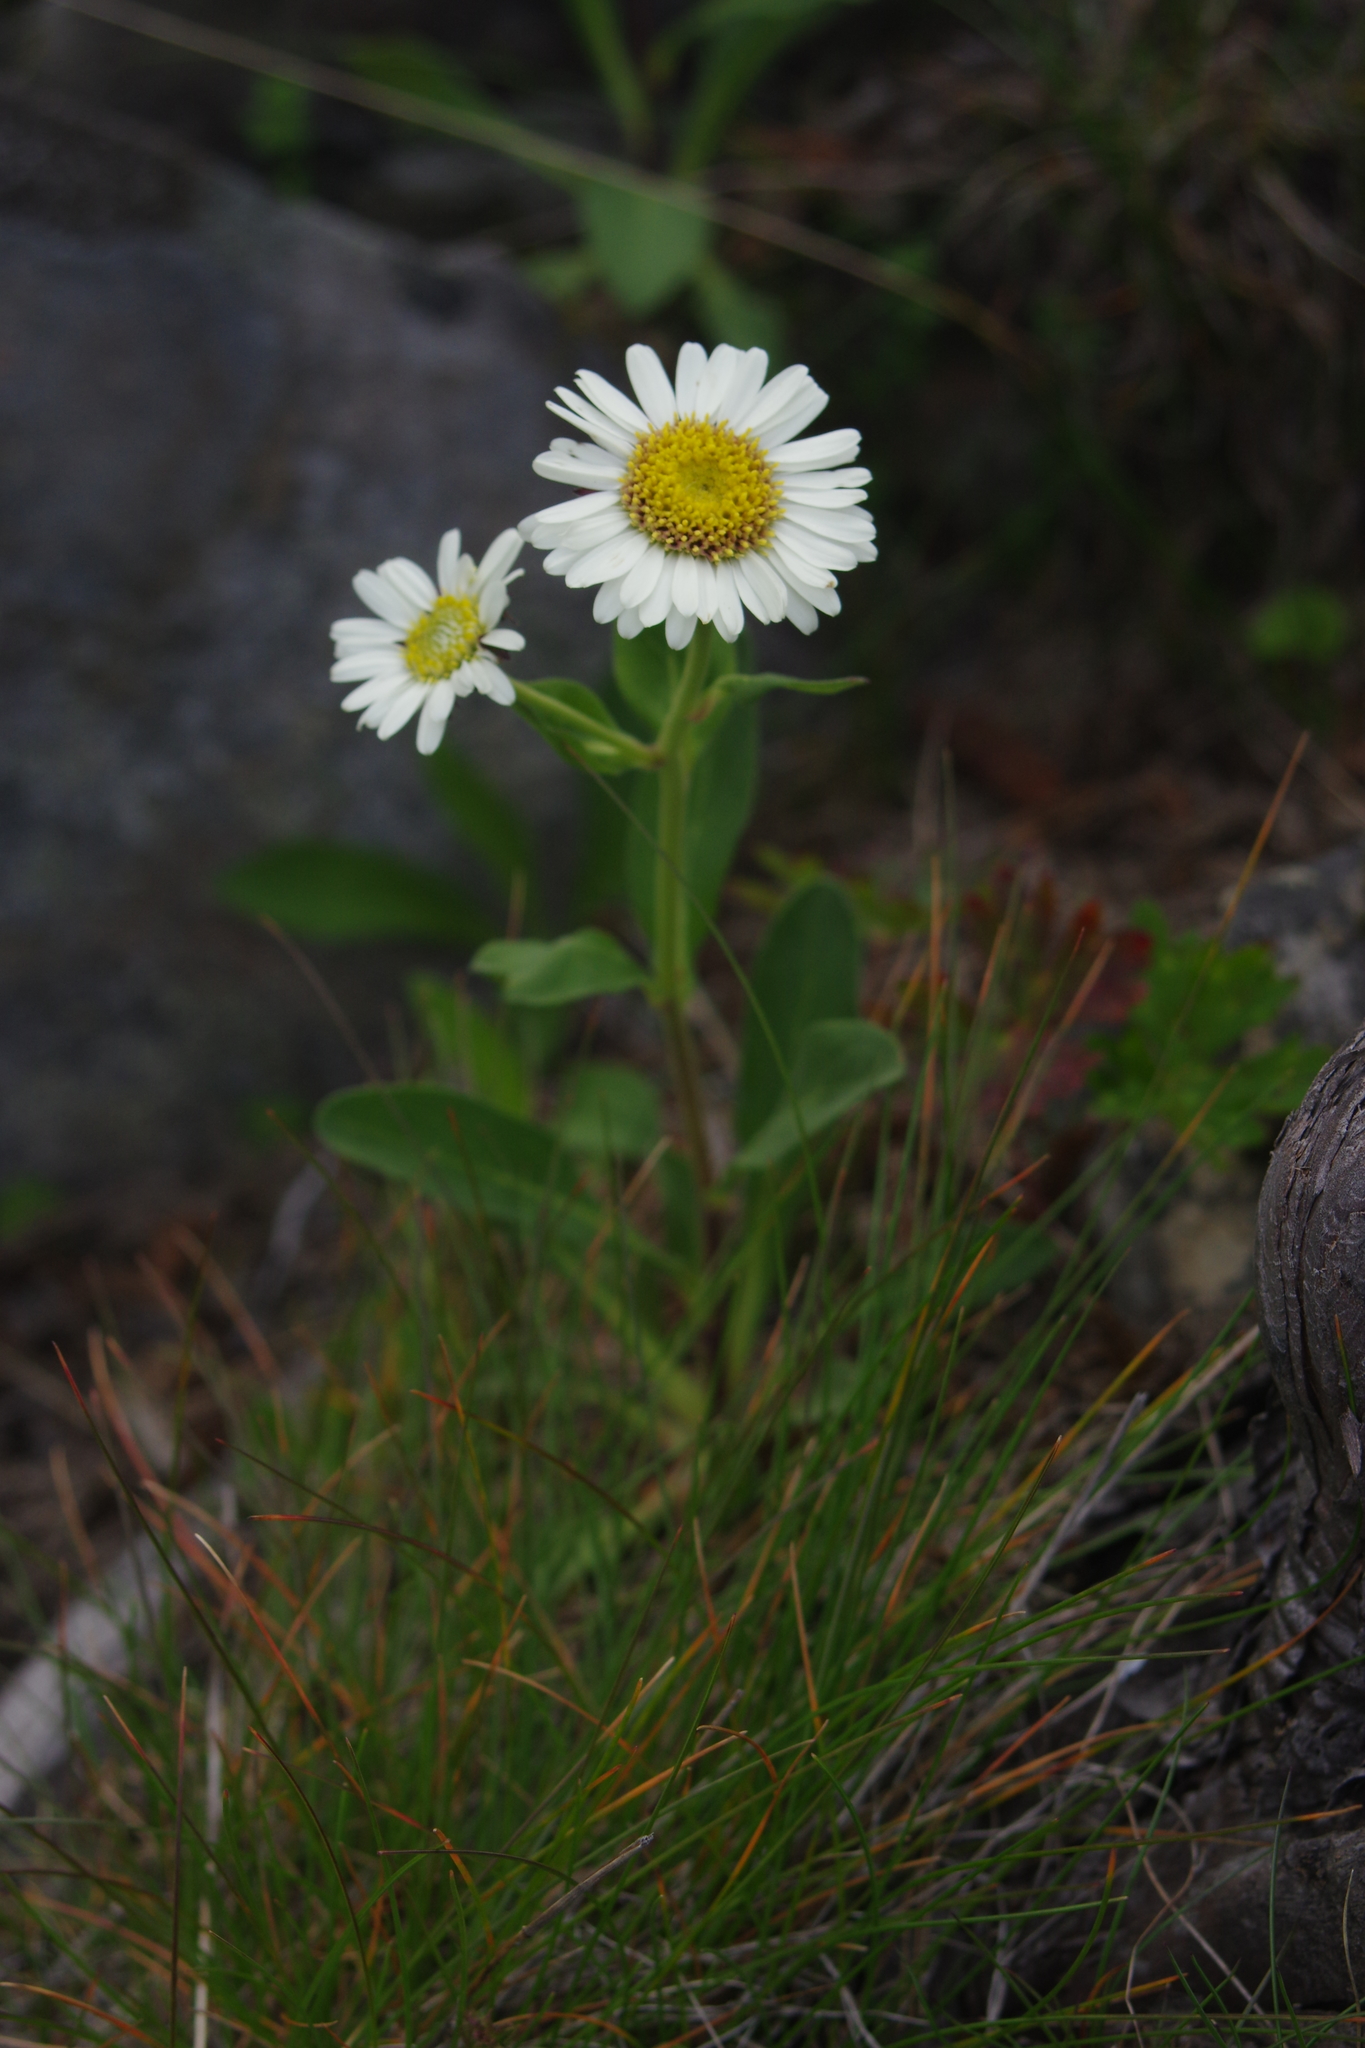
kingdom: Plantae
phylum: Tracheophyta
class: Magnoliopsida
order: Asterales
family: Asteraceae
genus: Aster
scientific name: Aster takasagomontanus
